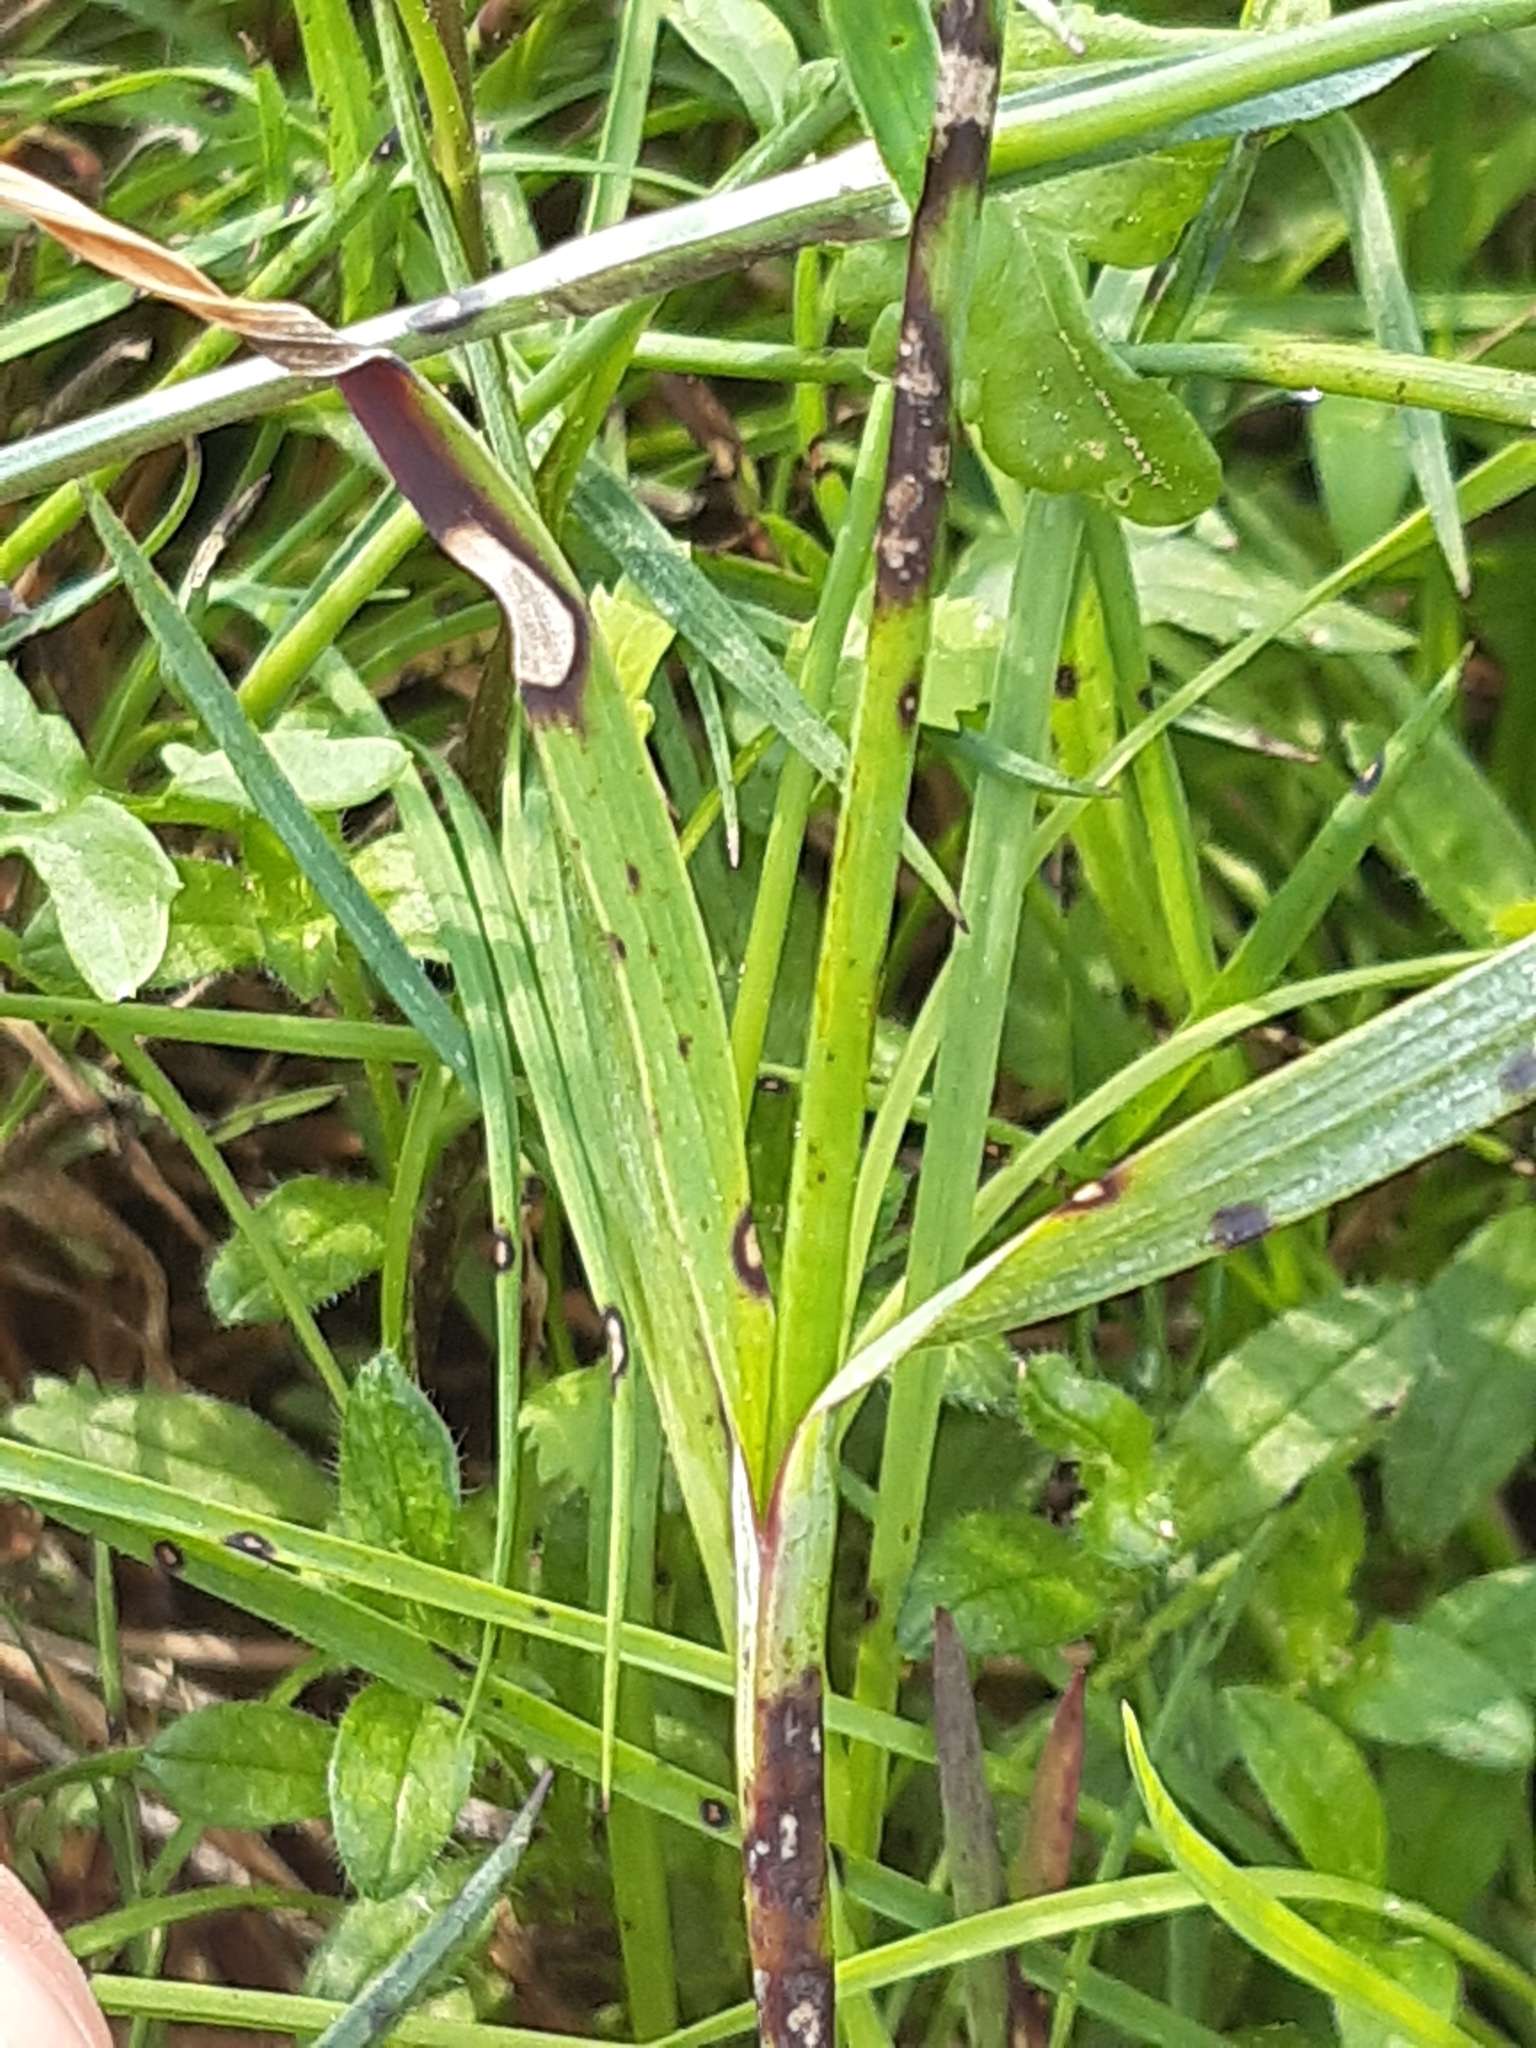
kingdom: Fungi
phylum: Ascomycota
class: Dothideomycetes
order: Mycosphaerellales
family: Mycosphaerellaceae
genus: Mycosphaerella
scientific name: Mycosphaerella dianthi
